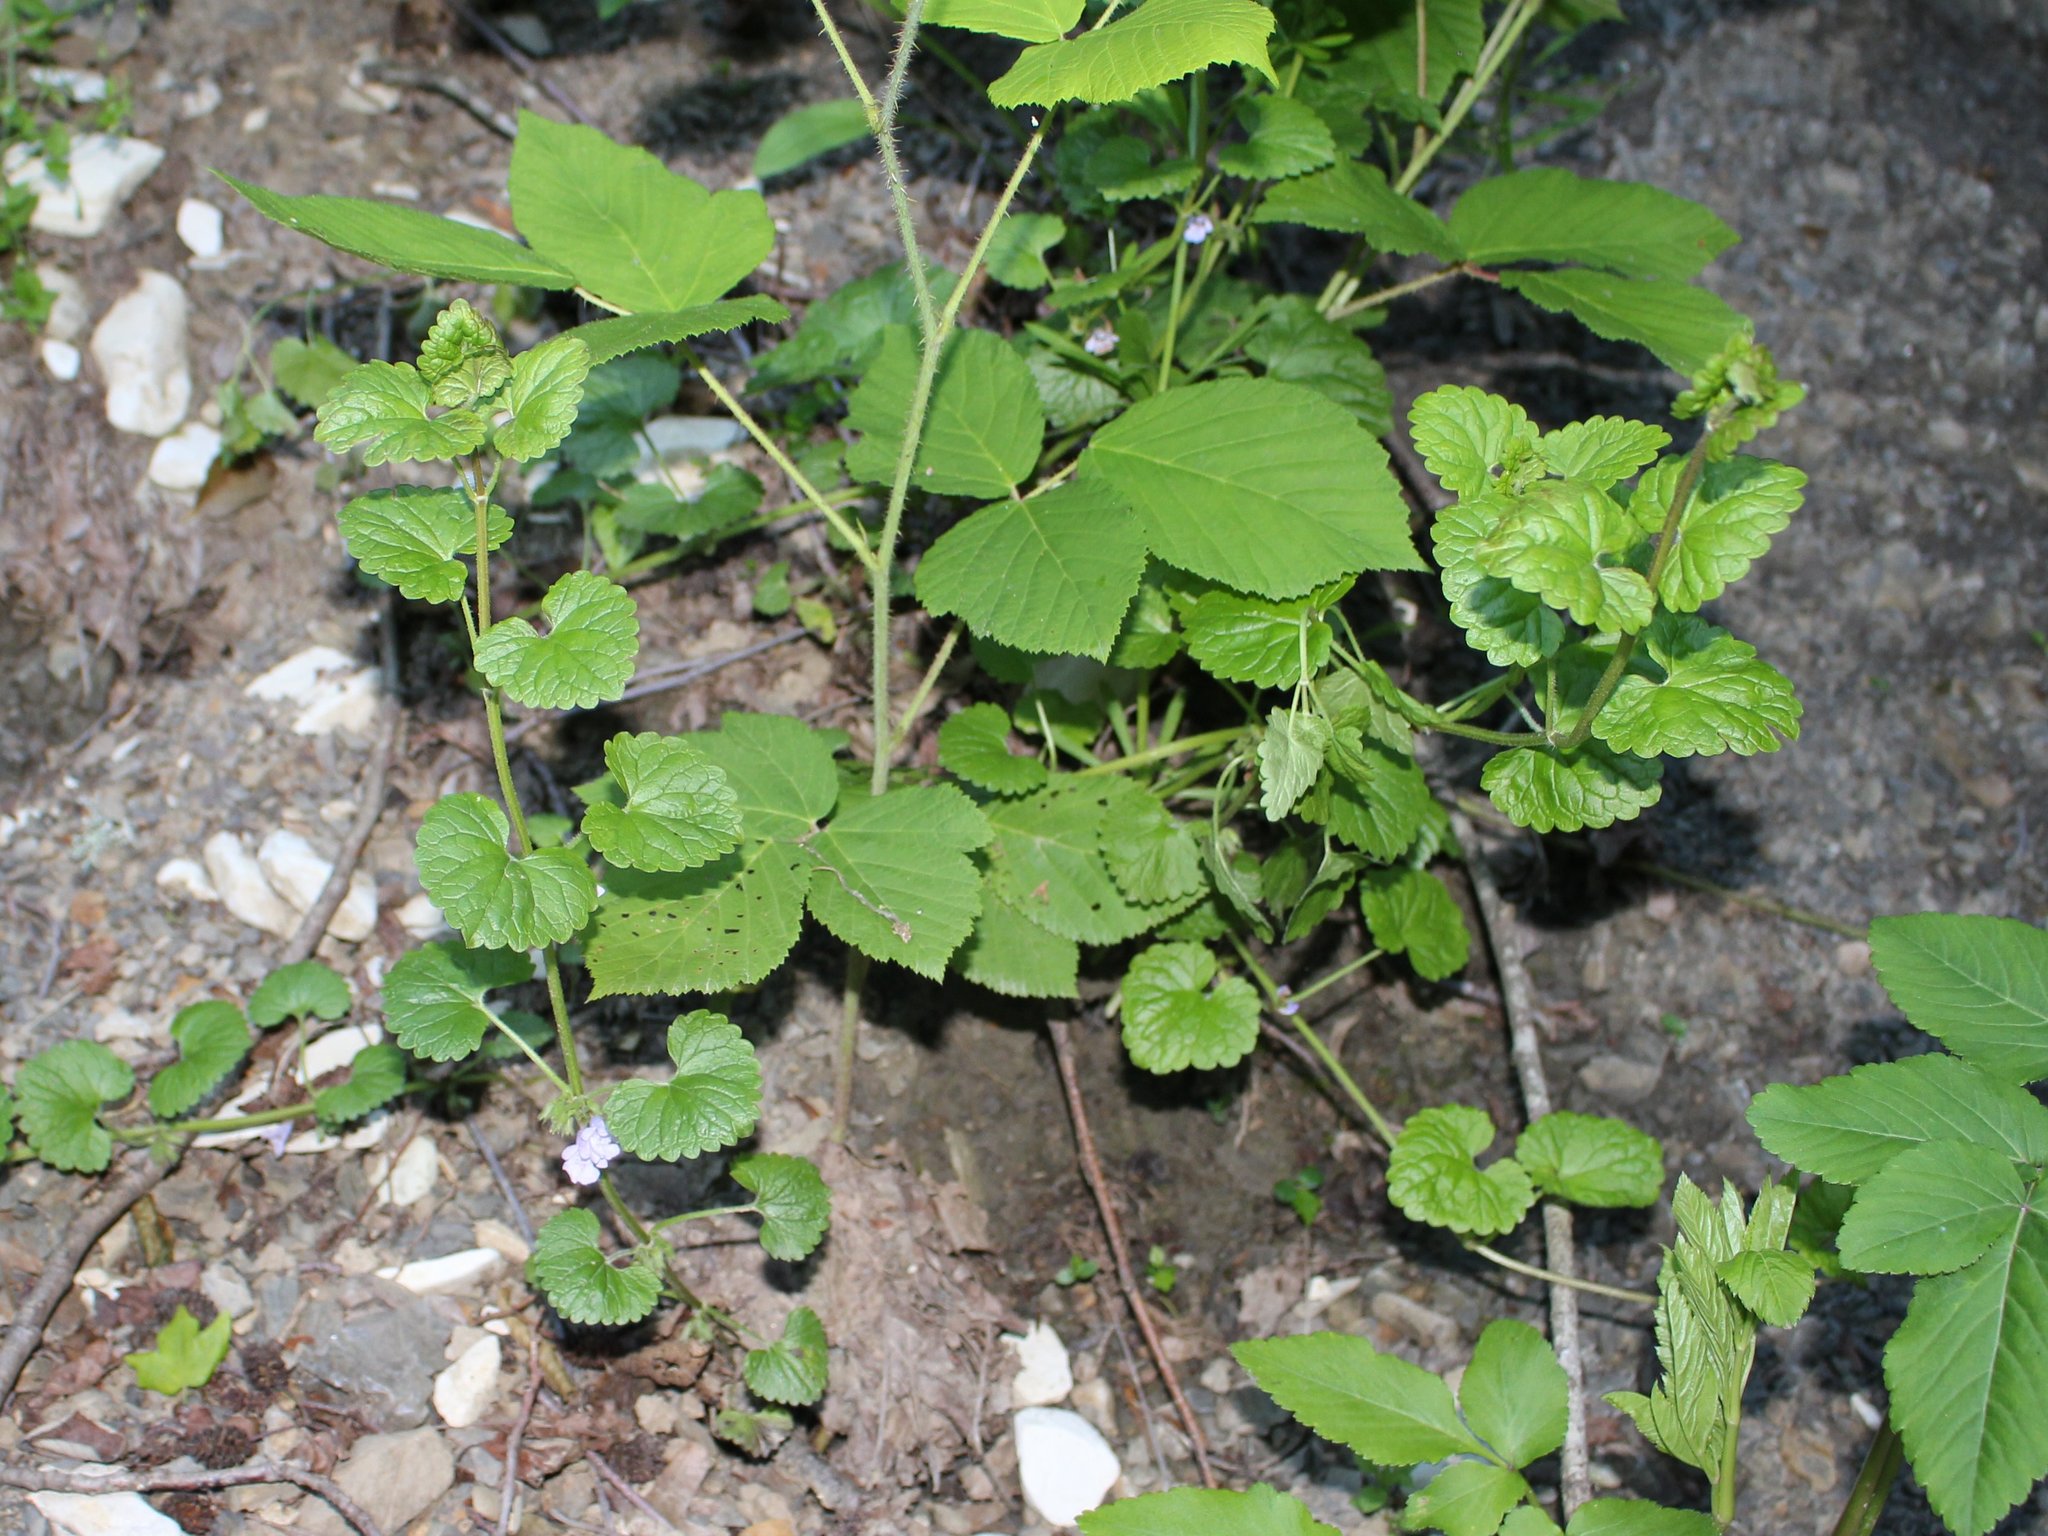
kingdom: Plantae
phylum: Tracheophyta
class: Magnoliopsida
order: Lamiales
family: Lamiaceae
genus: Glechoma
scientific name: Glechoma hederacea
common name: Ground ivy
